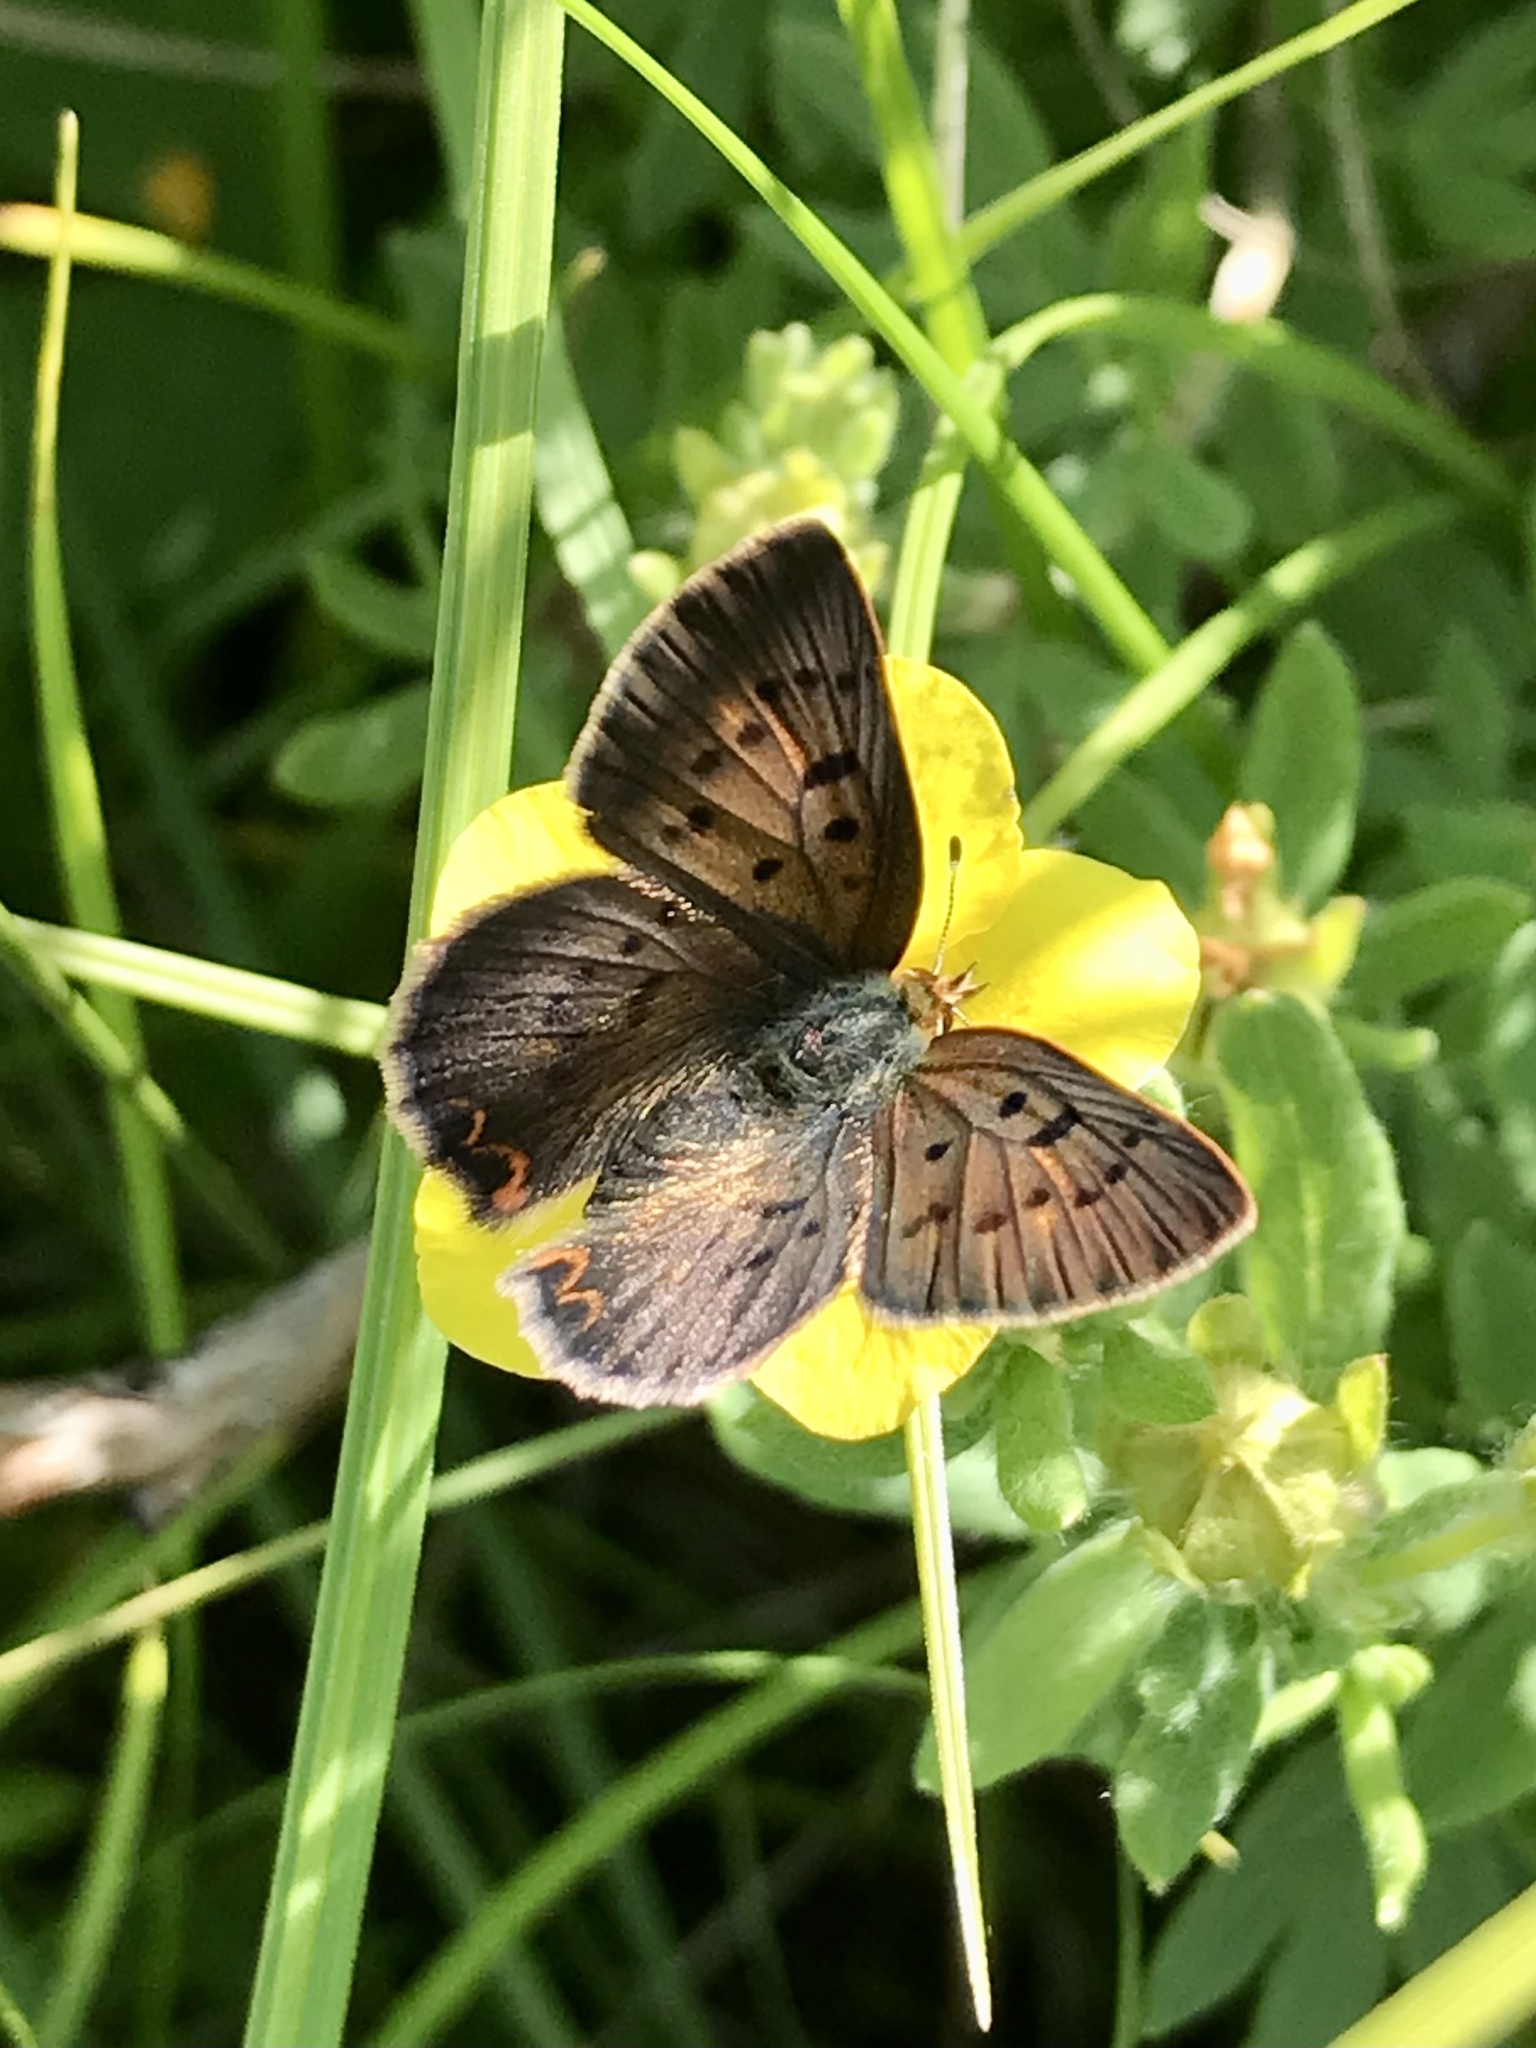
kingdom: Animalia
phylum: Arthropoda
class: Insecta
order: Lepidoptera
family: Lycaenidae
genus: Tharsalea
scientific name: Tharsalea dorcas
